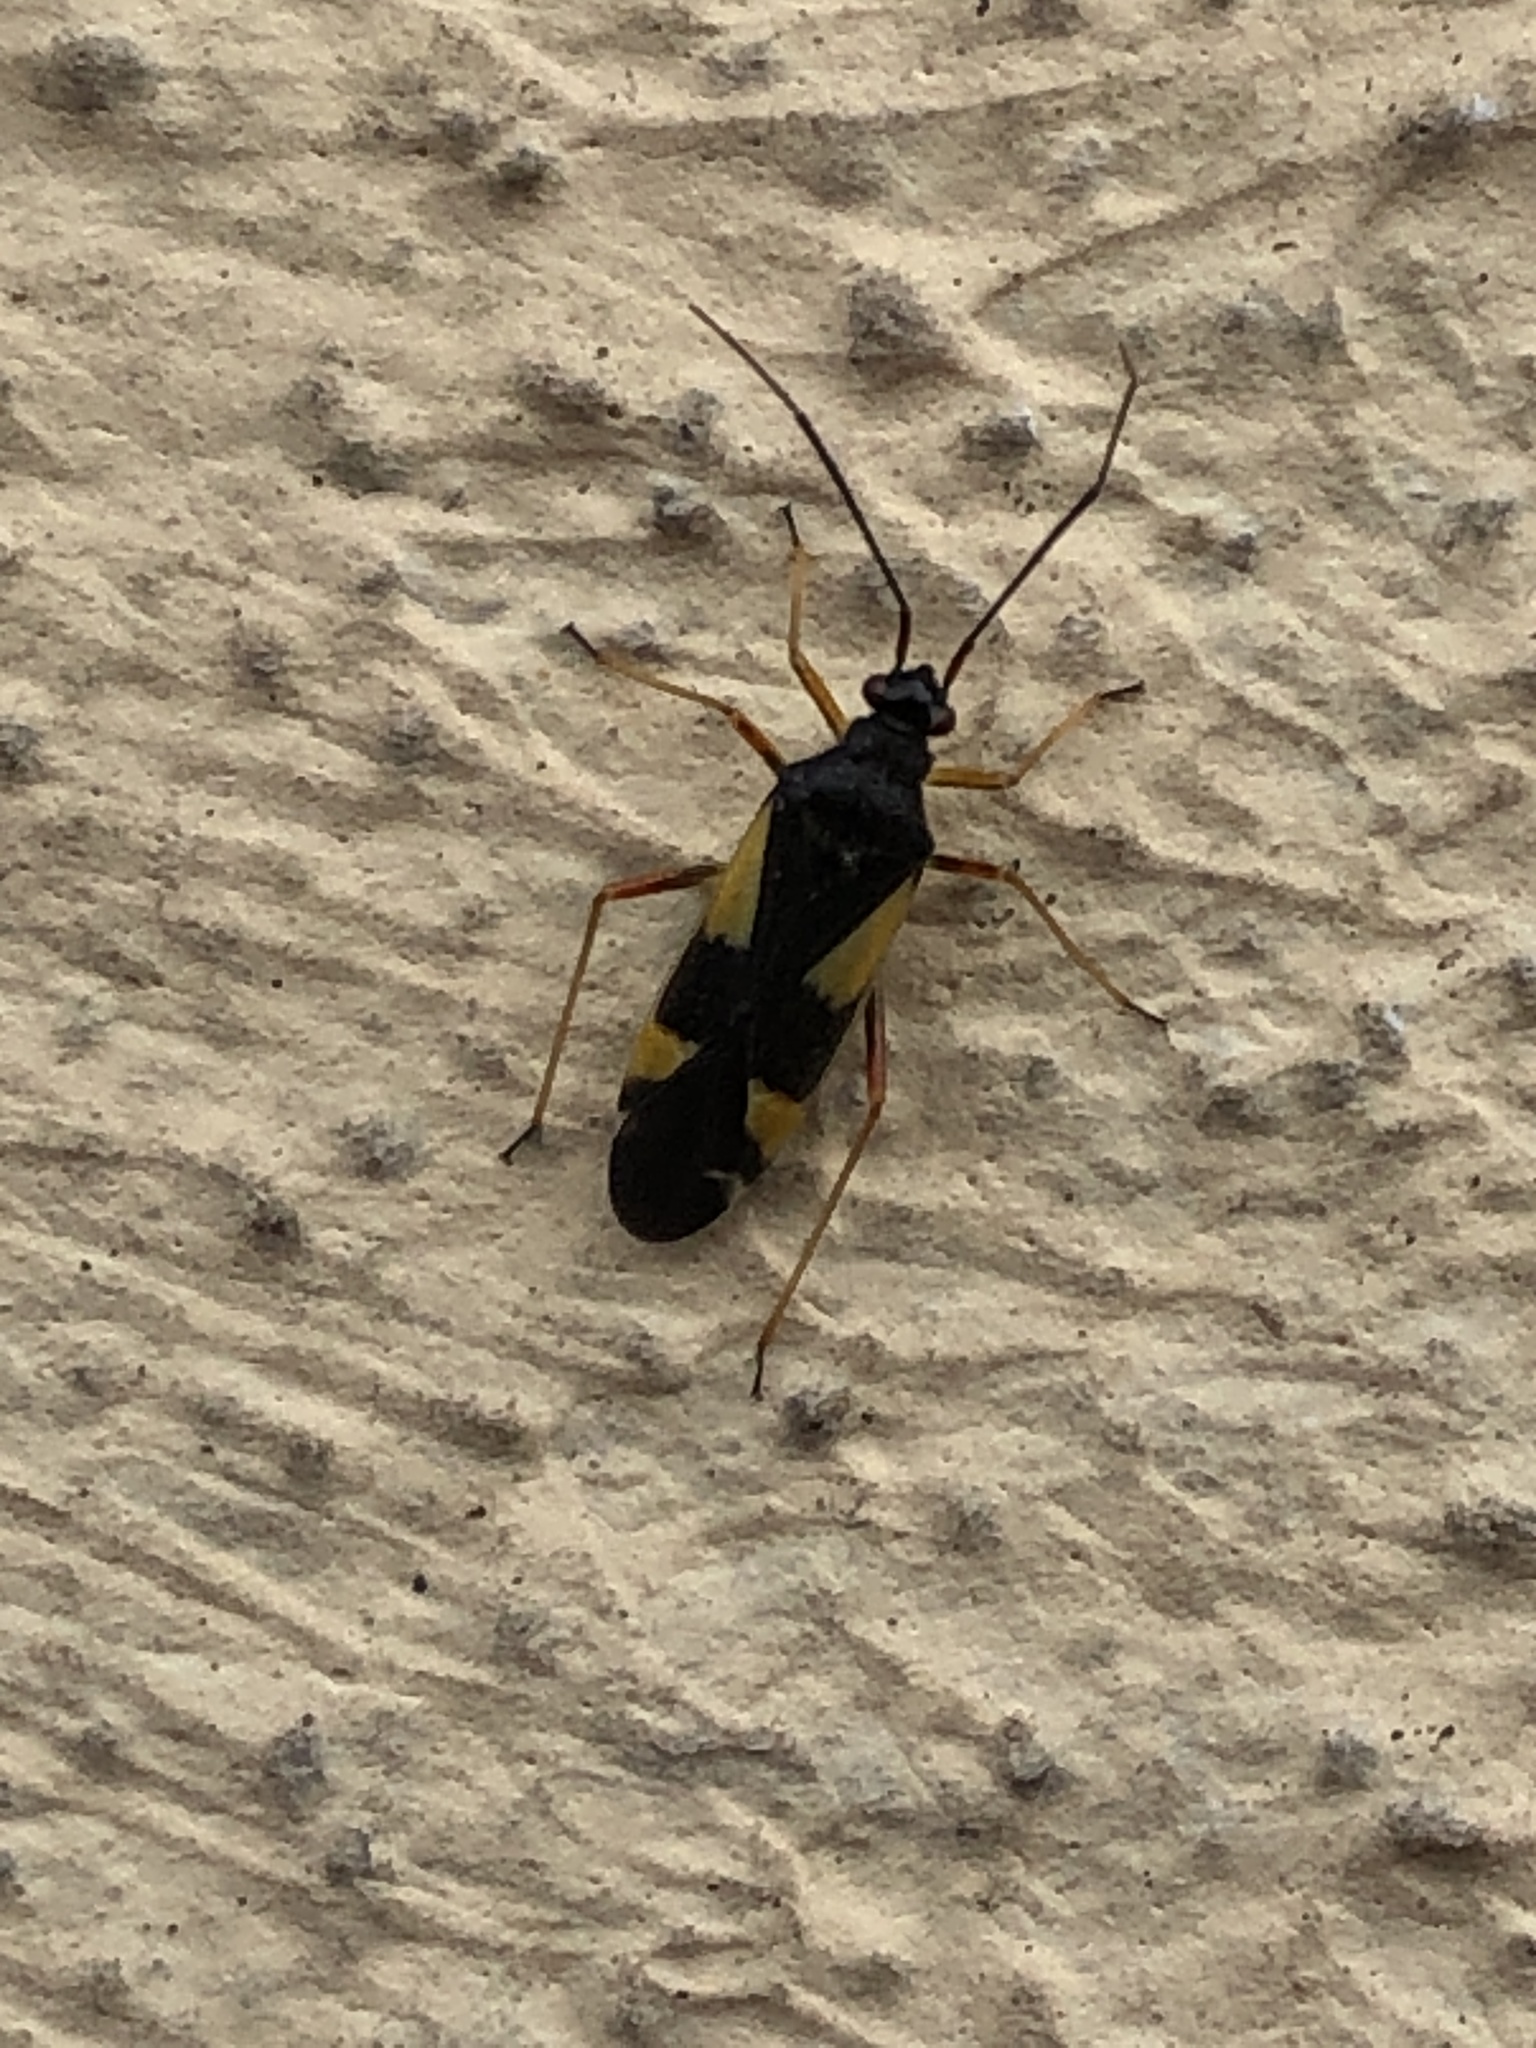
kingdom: Animalia
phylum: Arthropoda
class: Insecta
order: Hemiptera
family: Miridae
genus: Dryophilocoris
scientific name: Dryophilocoris flavoquadrimaculatus
